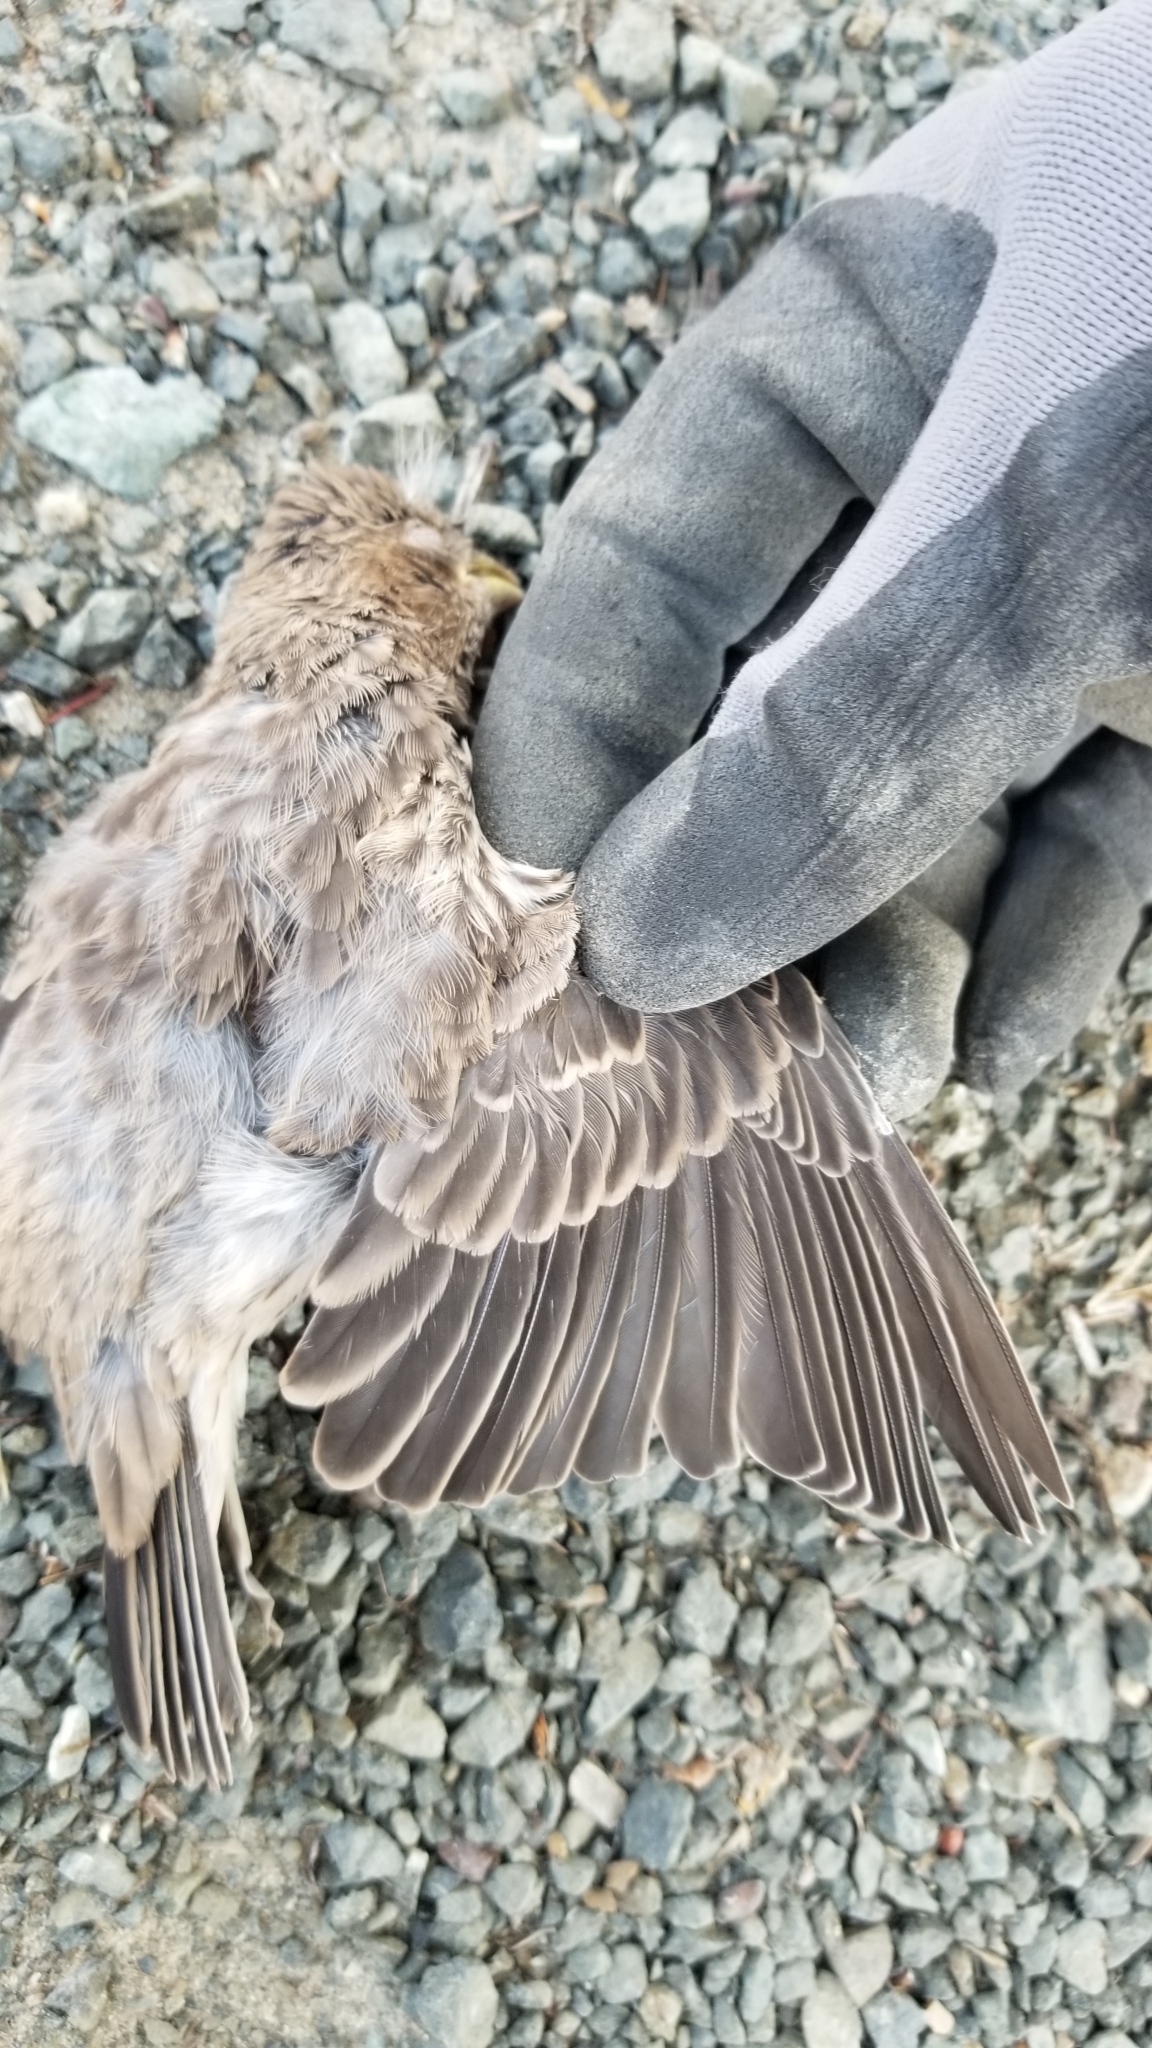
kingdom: Animalia
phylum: Chordata
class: Aves
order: Passeriformes
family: Fringillidae
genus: Haemorhous
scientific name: Haemorhous mexicanus
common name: House finch
